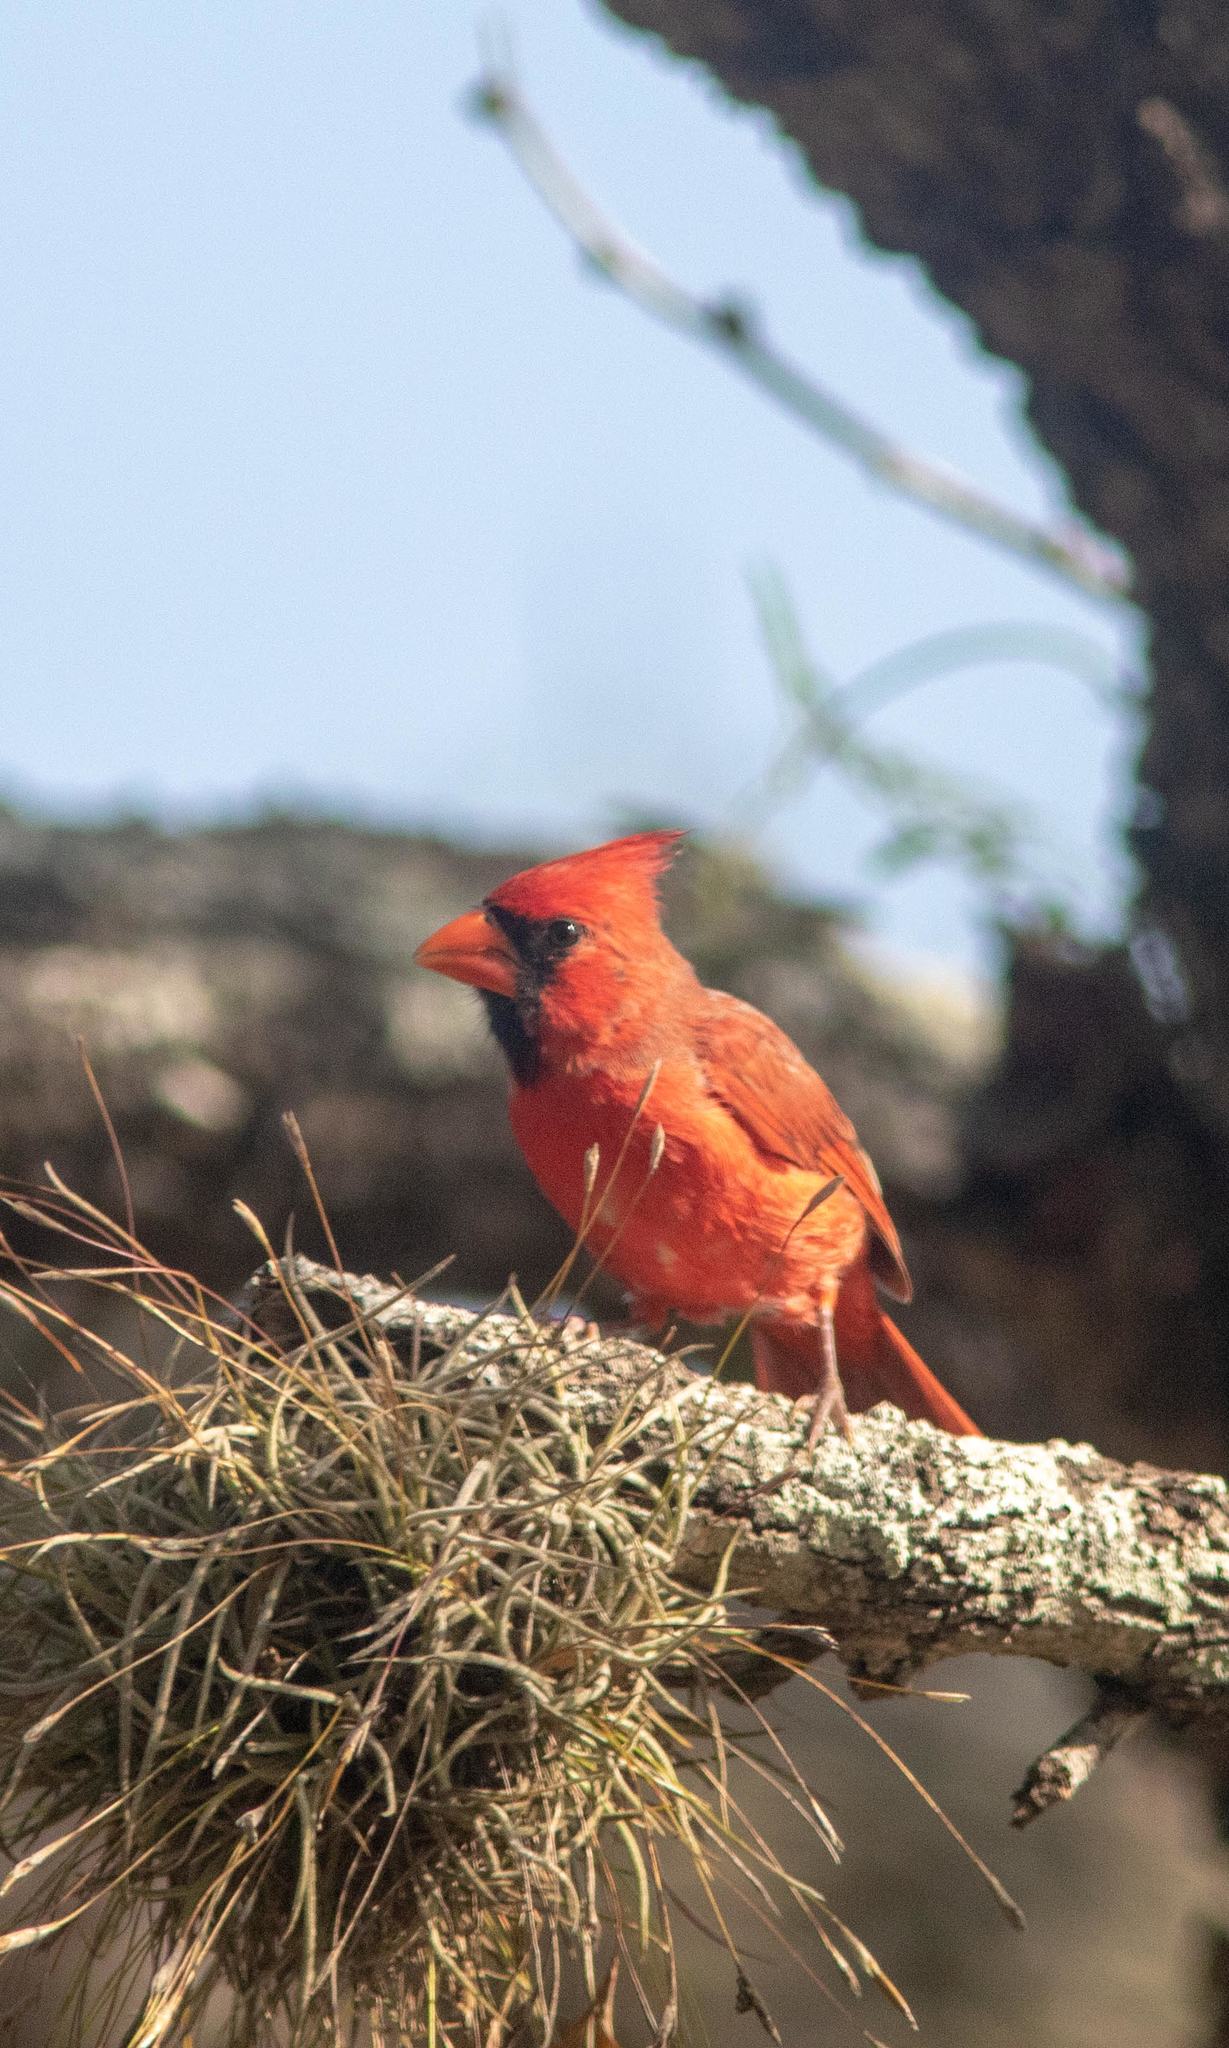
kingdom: Animalia
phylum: Chordata
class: Aves
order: Passeriformes
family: Cardinalidae
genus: Cardinalis
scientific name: Cardinalis cardinalis
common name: Northern cardinal
